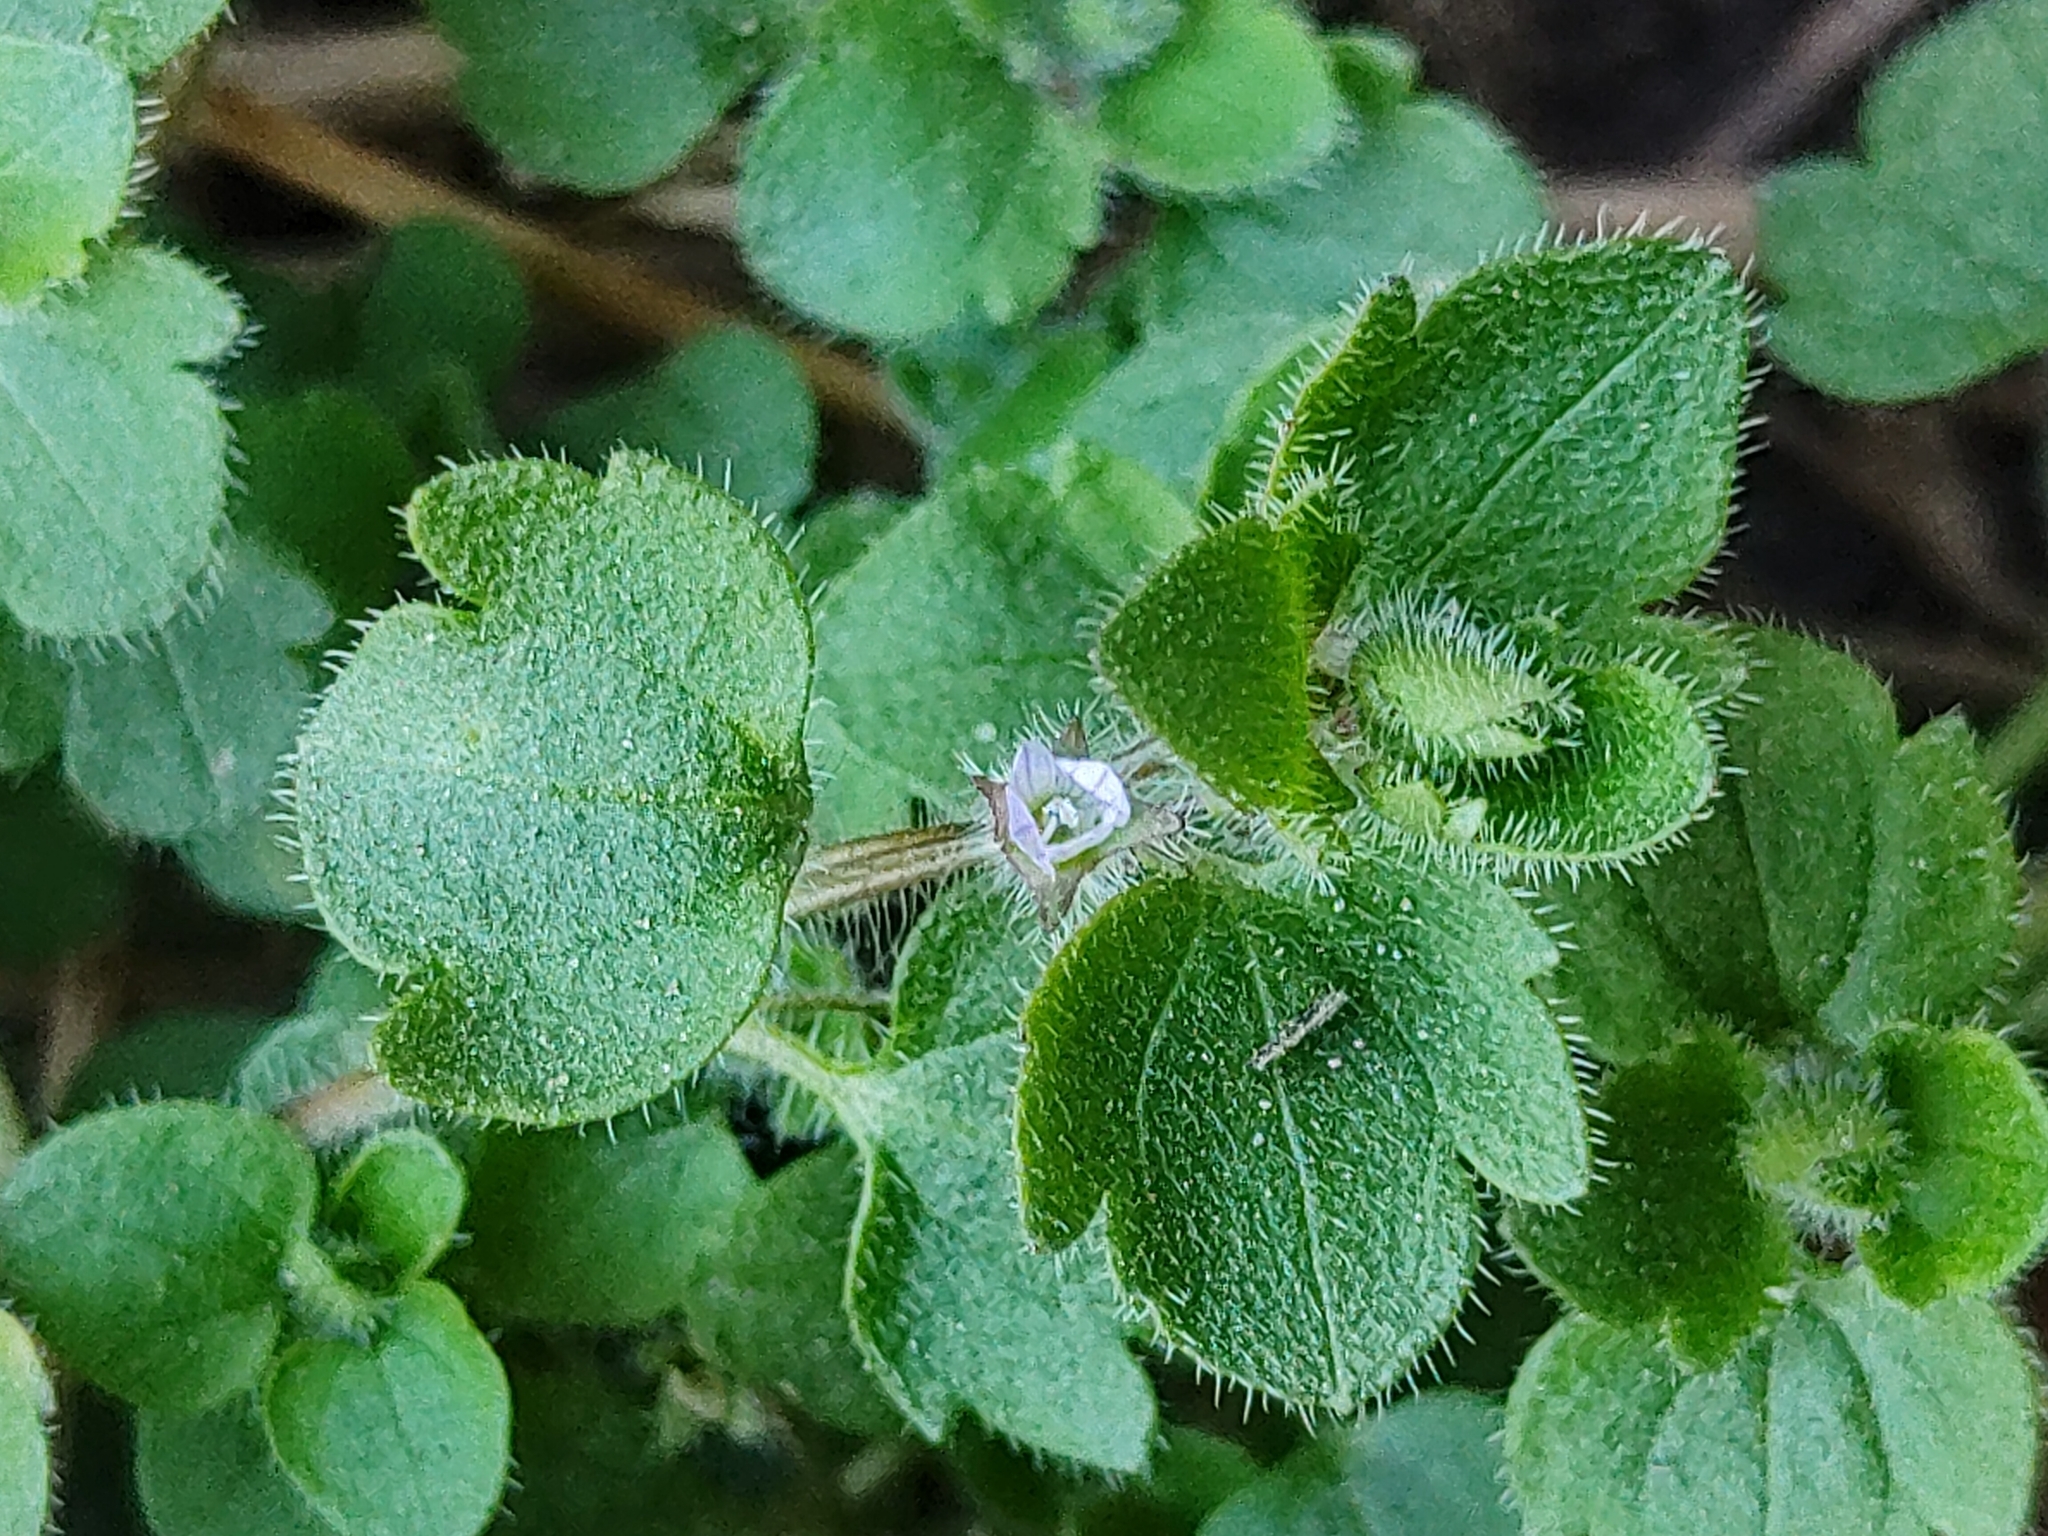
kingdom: Plantae
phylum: Tracheophyta
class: Magnoliopsida
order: Lamiales
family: Plantaginaceae
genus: Veronica
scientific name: Veronica sublobata
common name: False ivy-leaved speedwell
